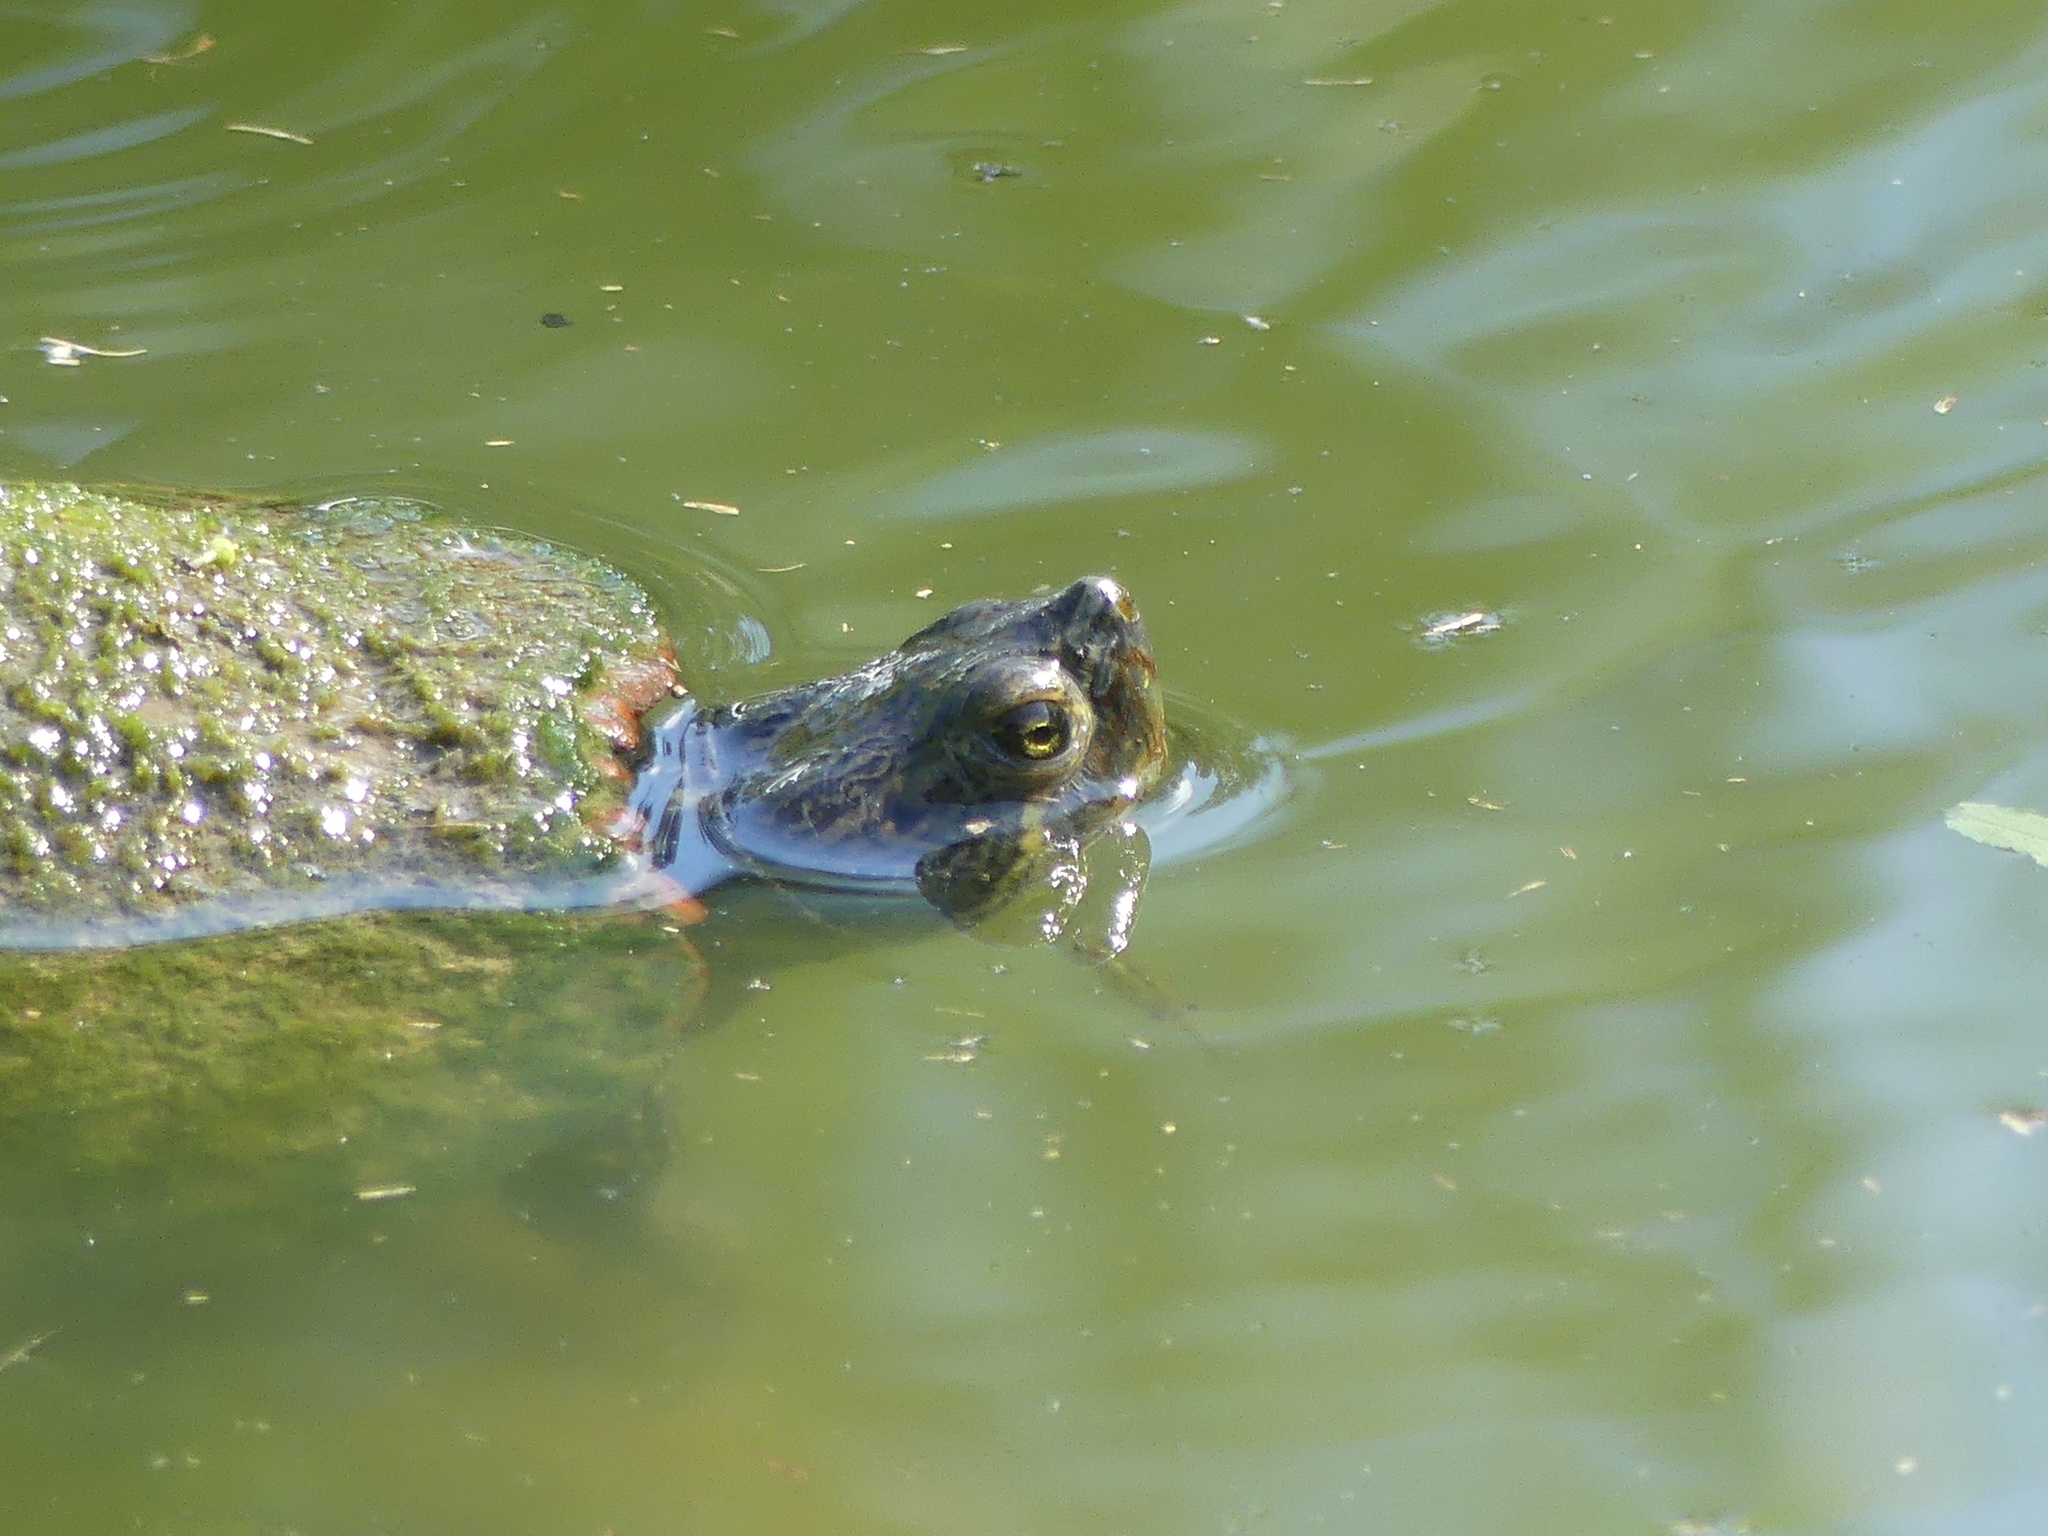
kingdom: Animalia
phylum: Chordata
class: Testudines
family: Emydidae
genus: Trachemys
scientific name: Trachemys scripta
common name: Slider
